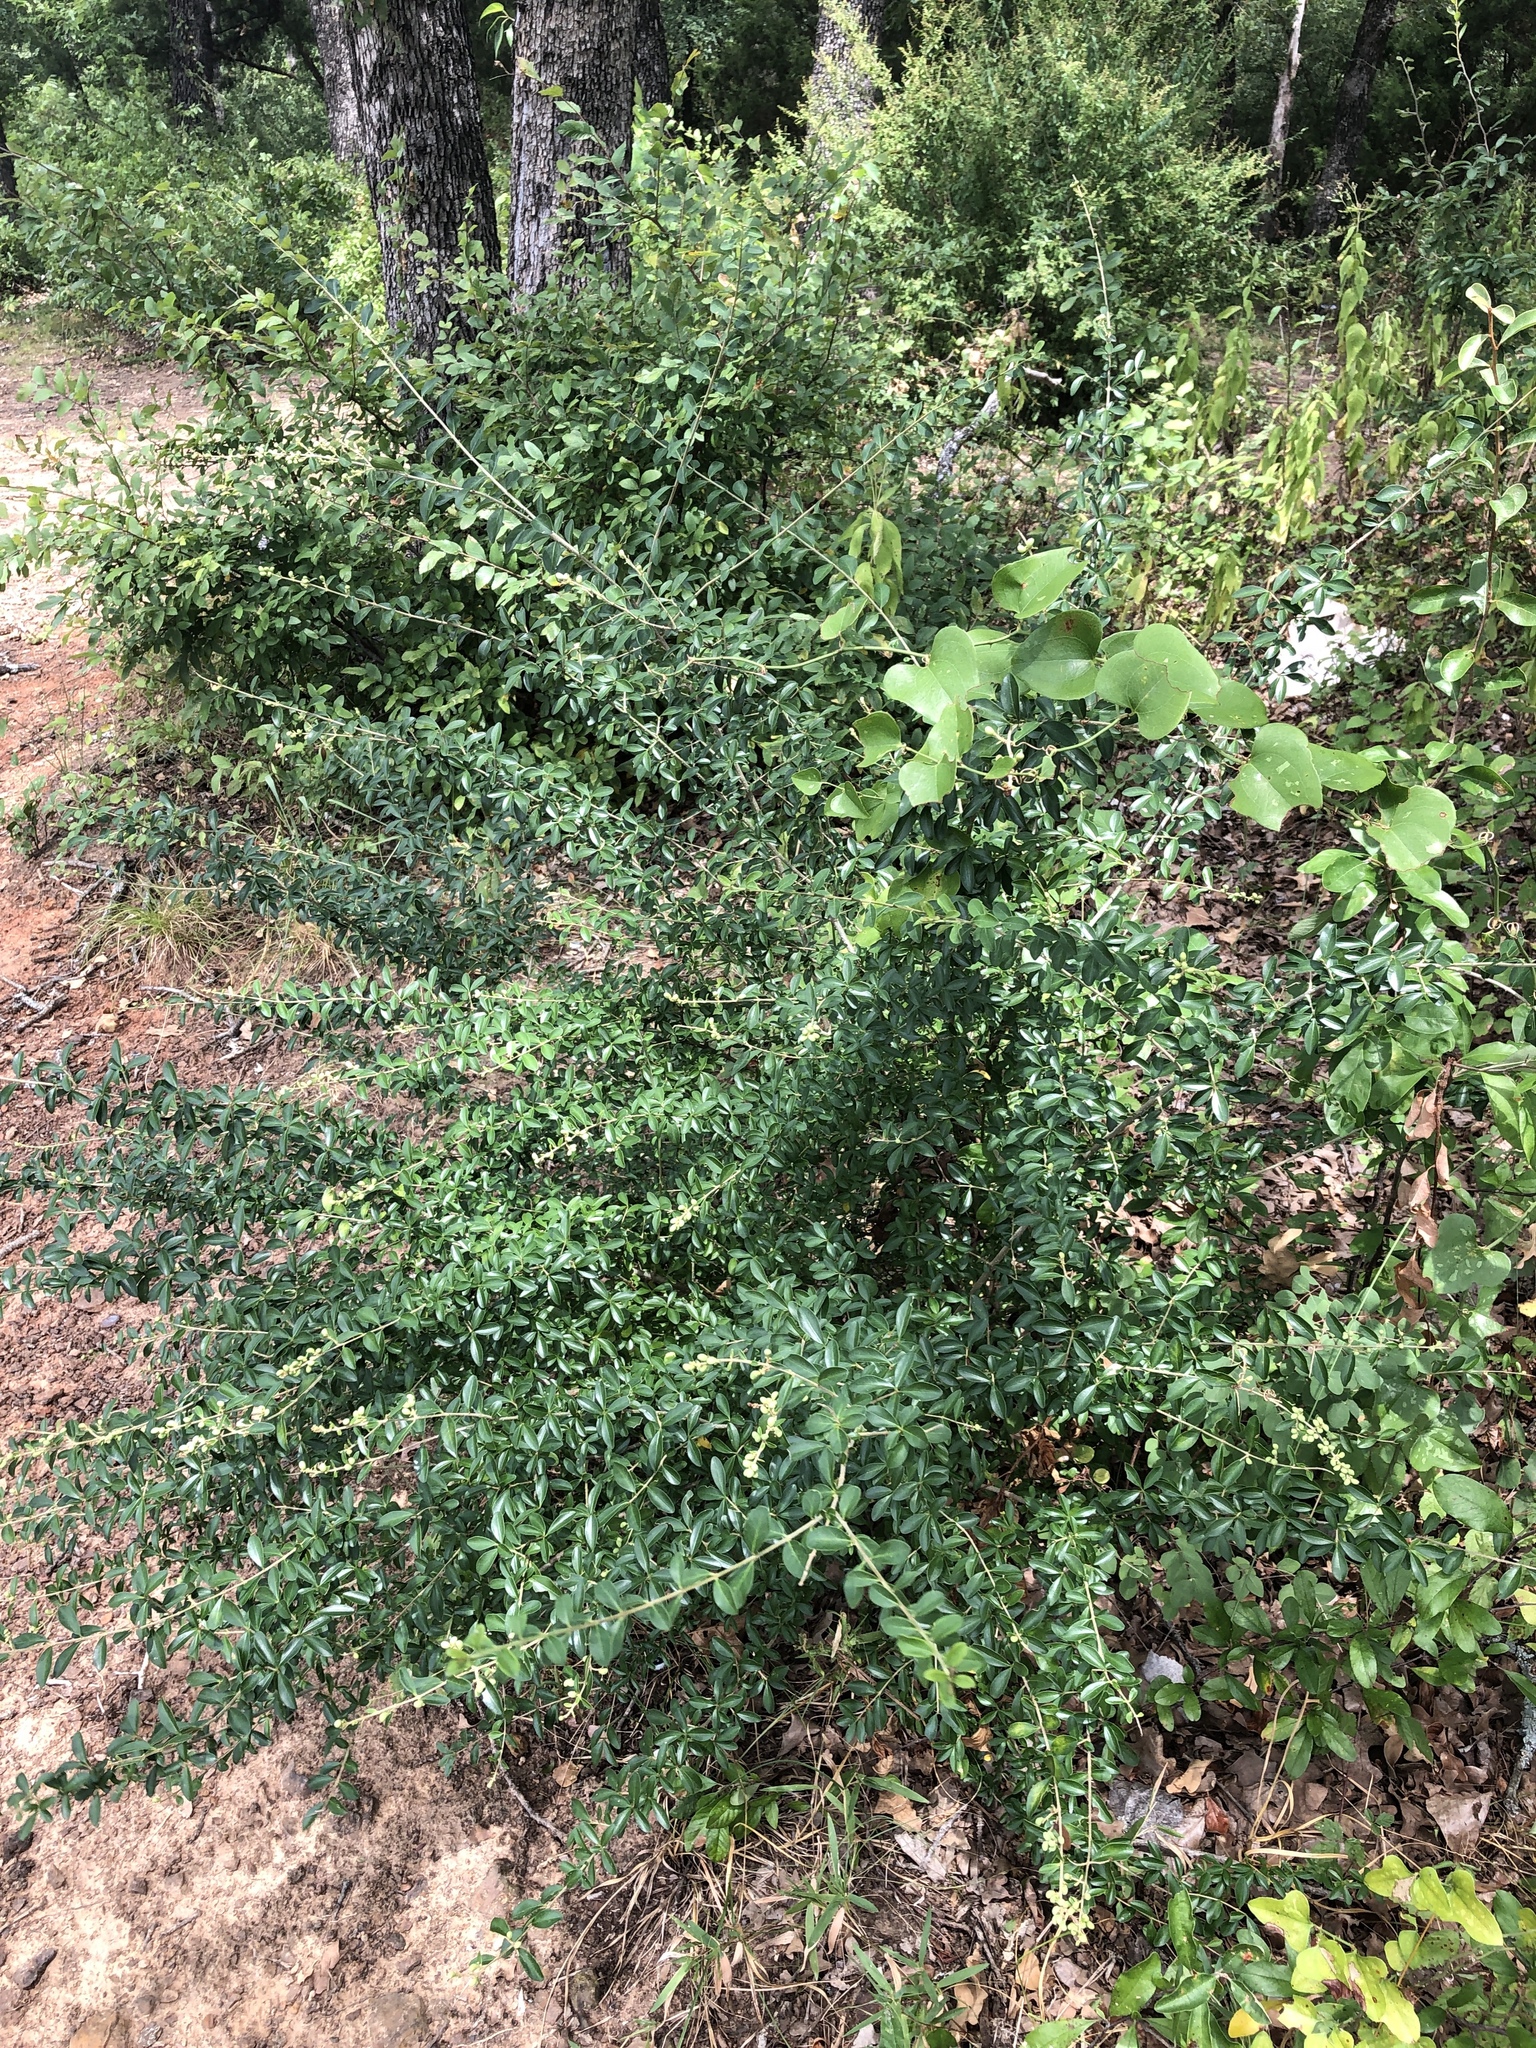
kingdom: Plantae
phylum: Tracheophyta
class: Magnoliopsida
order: Lamiales
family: Oleaceae
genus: Ligustrum
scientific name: Ligustrum quihoui
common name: Waxyleaf privet
